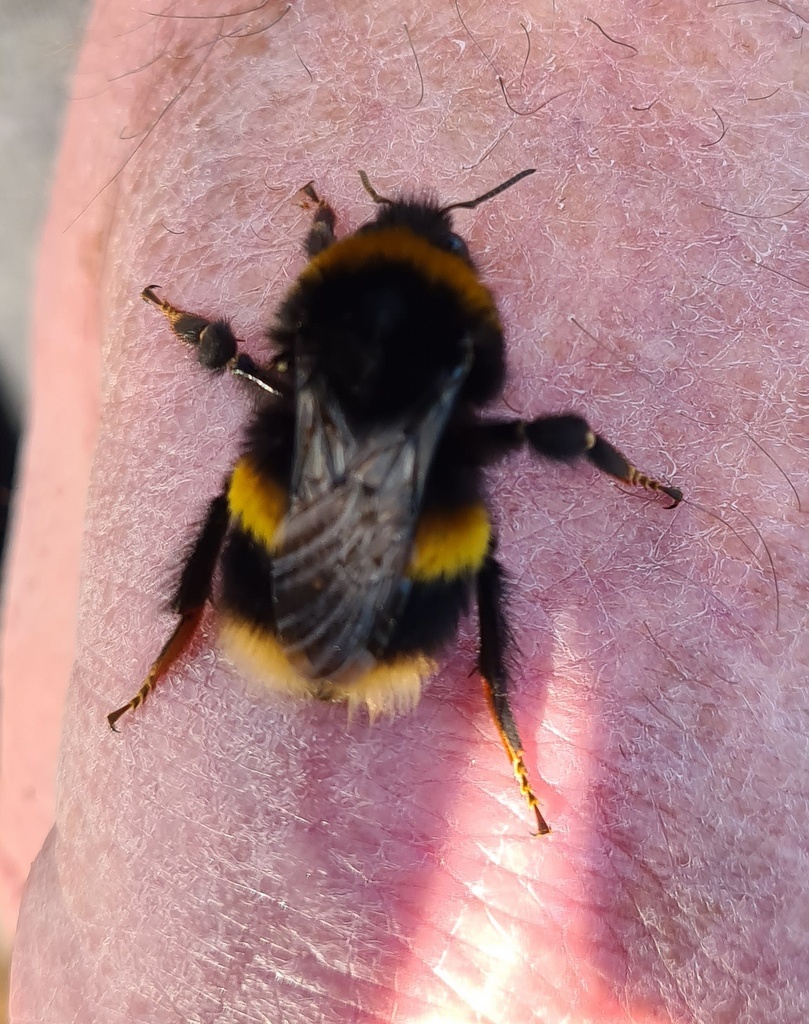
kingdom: Animalia
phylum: Arthropoda
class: Insecta
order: Hymenoptera
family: Apidae
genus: Bombus
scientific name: Bombus terrestris
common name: Buff-tailed bumblebee
